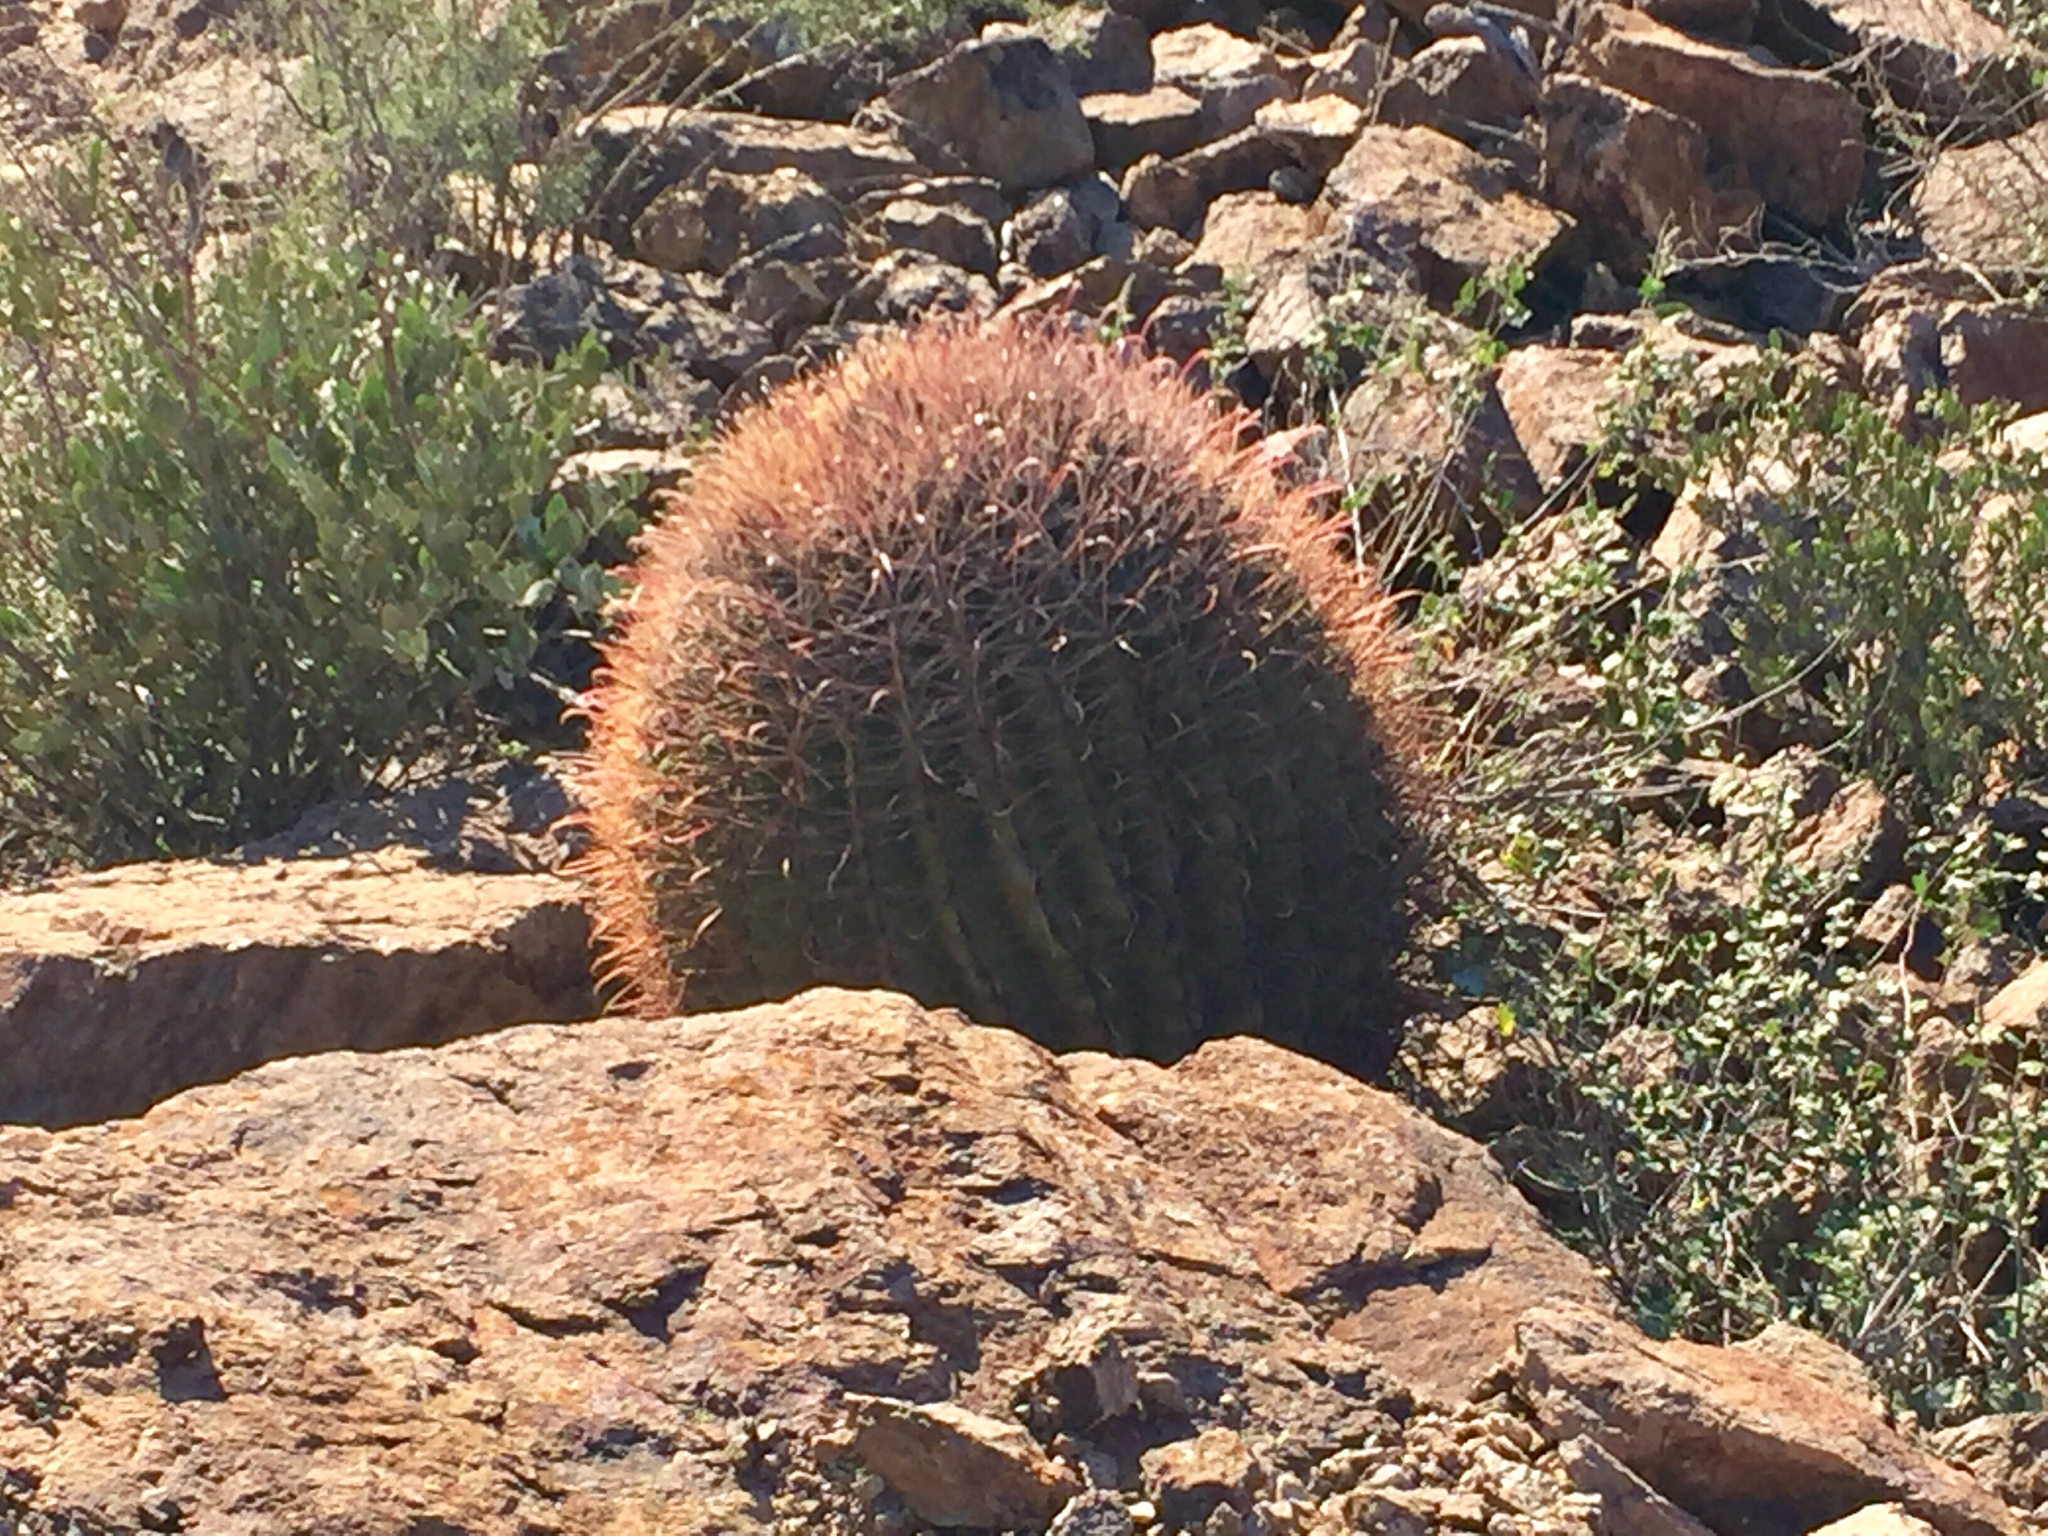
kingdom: Plantae
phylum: Tracheophyta
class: Magnoliopsida
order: Caryophyllales
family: Cactaceae
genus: Ferocactus
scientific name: Ferocactus wislizeni
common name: Candy barrel cactus
